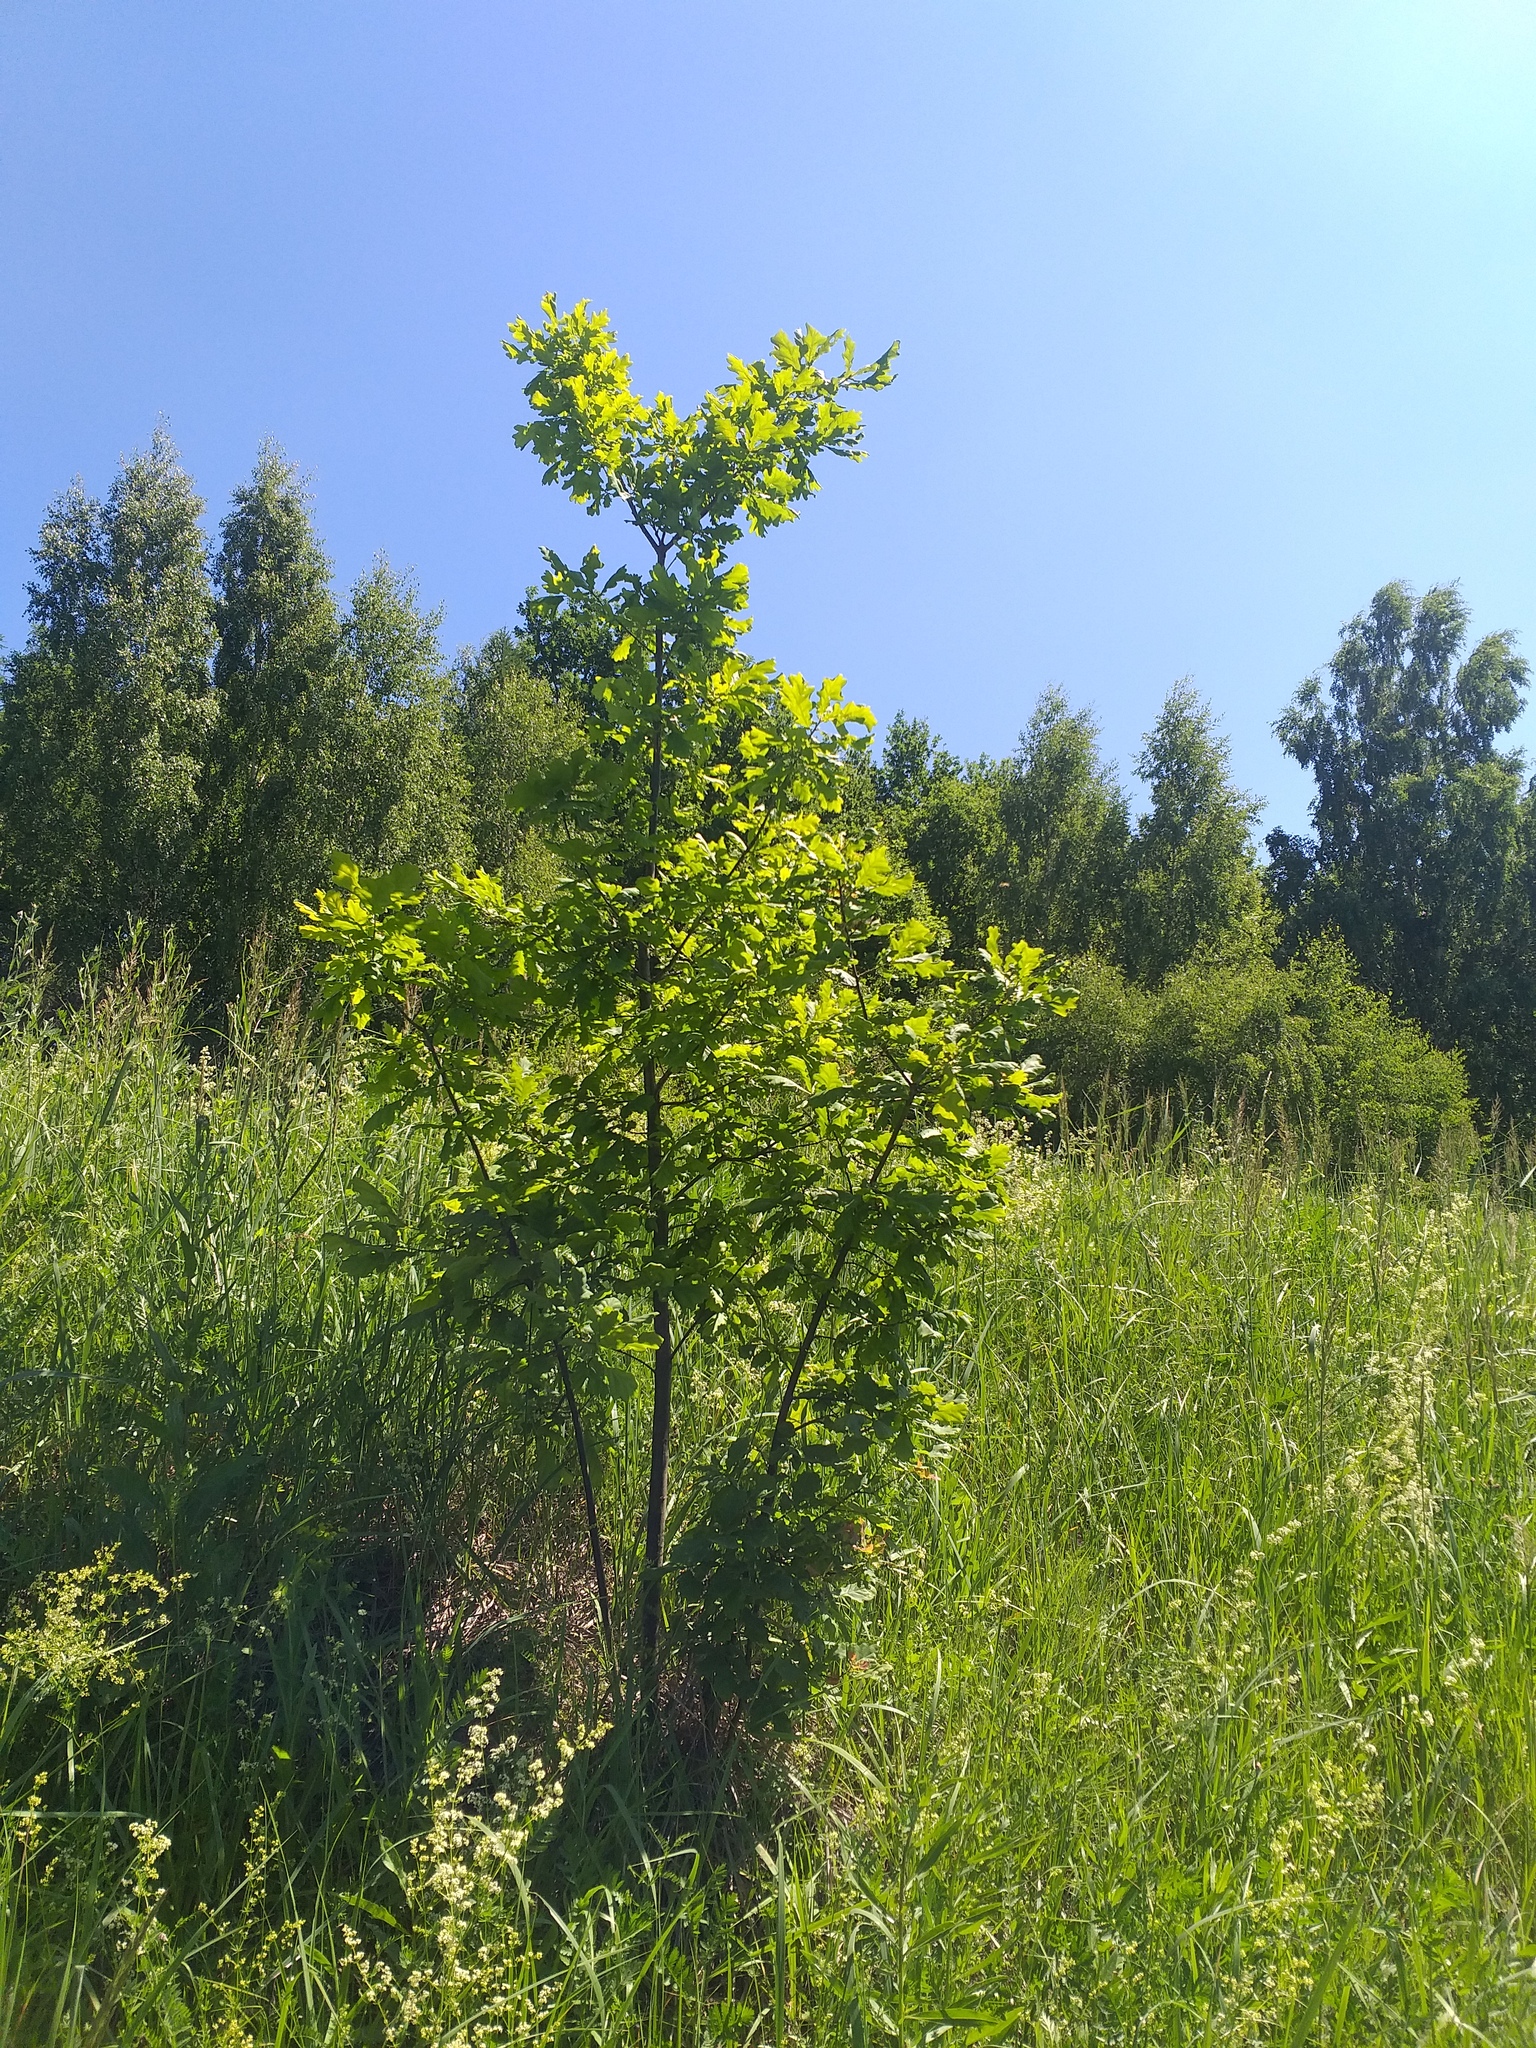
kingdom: Plantae
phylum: Tracheophyta
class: Magnoliopsida
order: Fagales
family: Fagaceae
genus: Quercus
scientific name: Quercus robur
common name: Pedunculate oak
